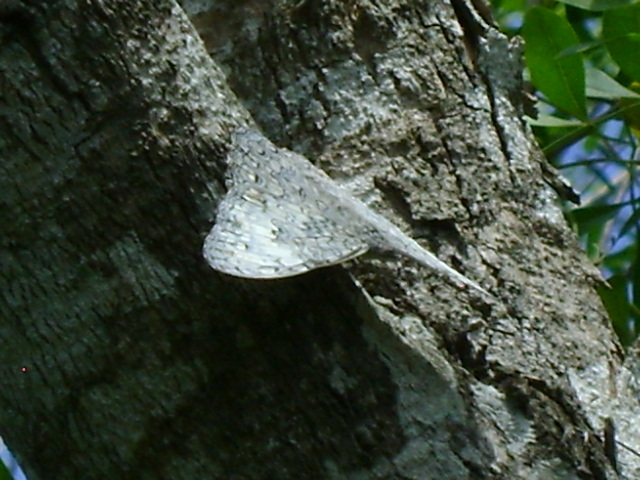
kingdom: Animalia
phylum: Arthropoda
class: Insecta
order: Lepidoptera
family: Nymphalidae
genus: Hamadryas
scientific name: Hamadryas glauconome
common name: Glaucous cracker
